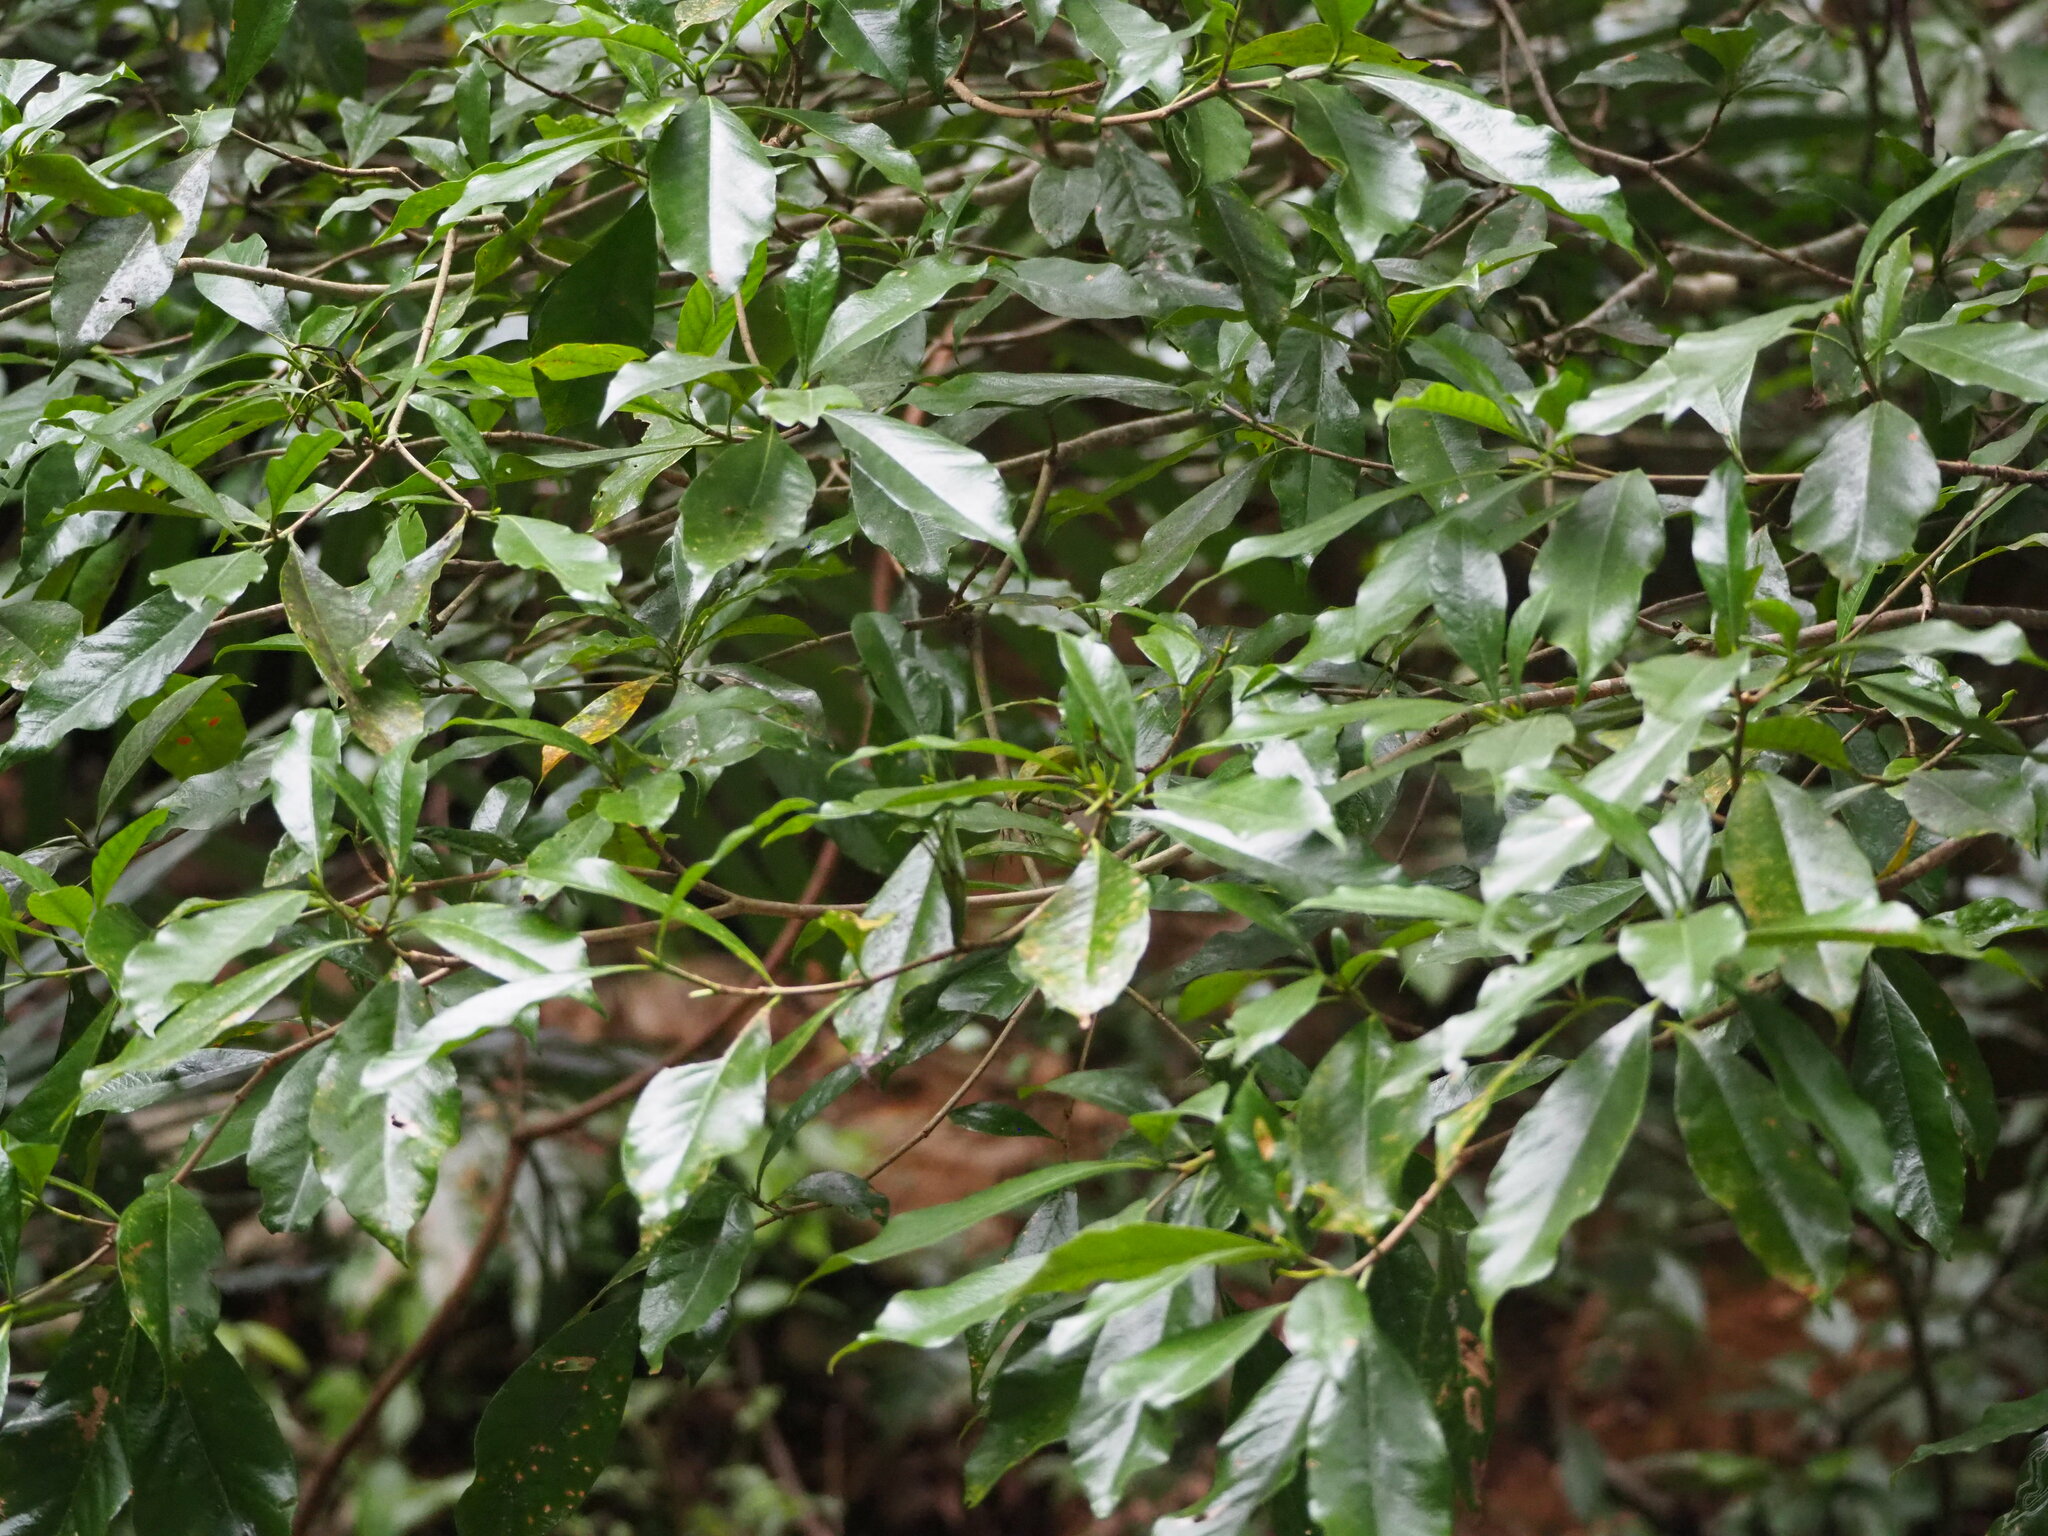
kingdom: Plantae
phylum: Tracheophyta
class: Magnoliopsida
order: Gentianales
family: Rubiaceae
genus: Gardenia
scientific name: Gardenia jasminoides
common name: Cape-jasmine
